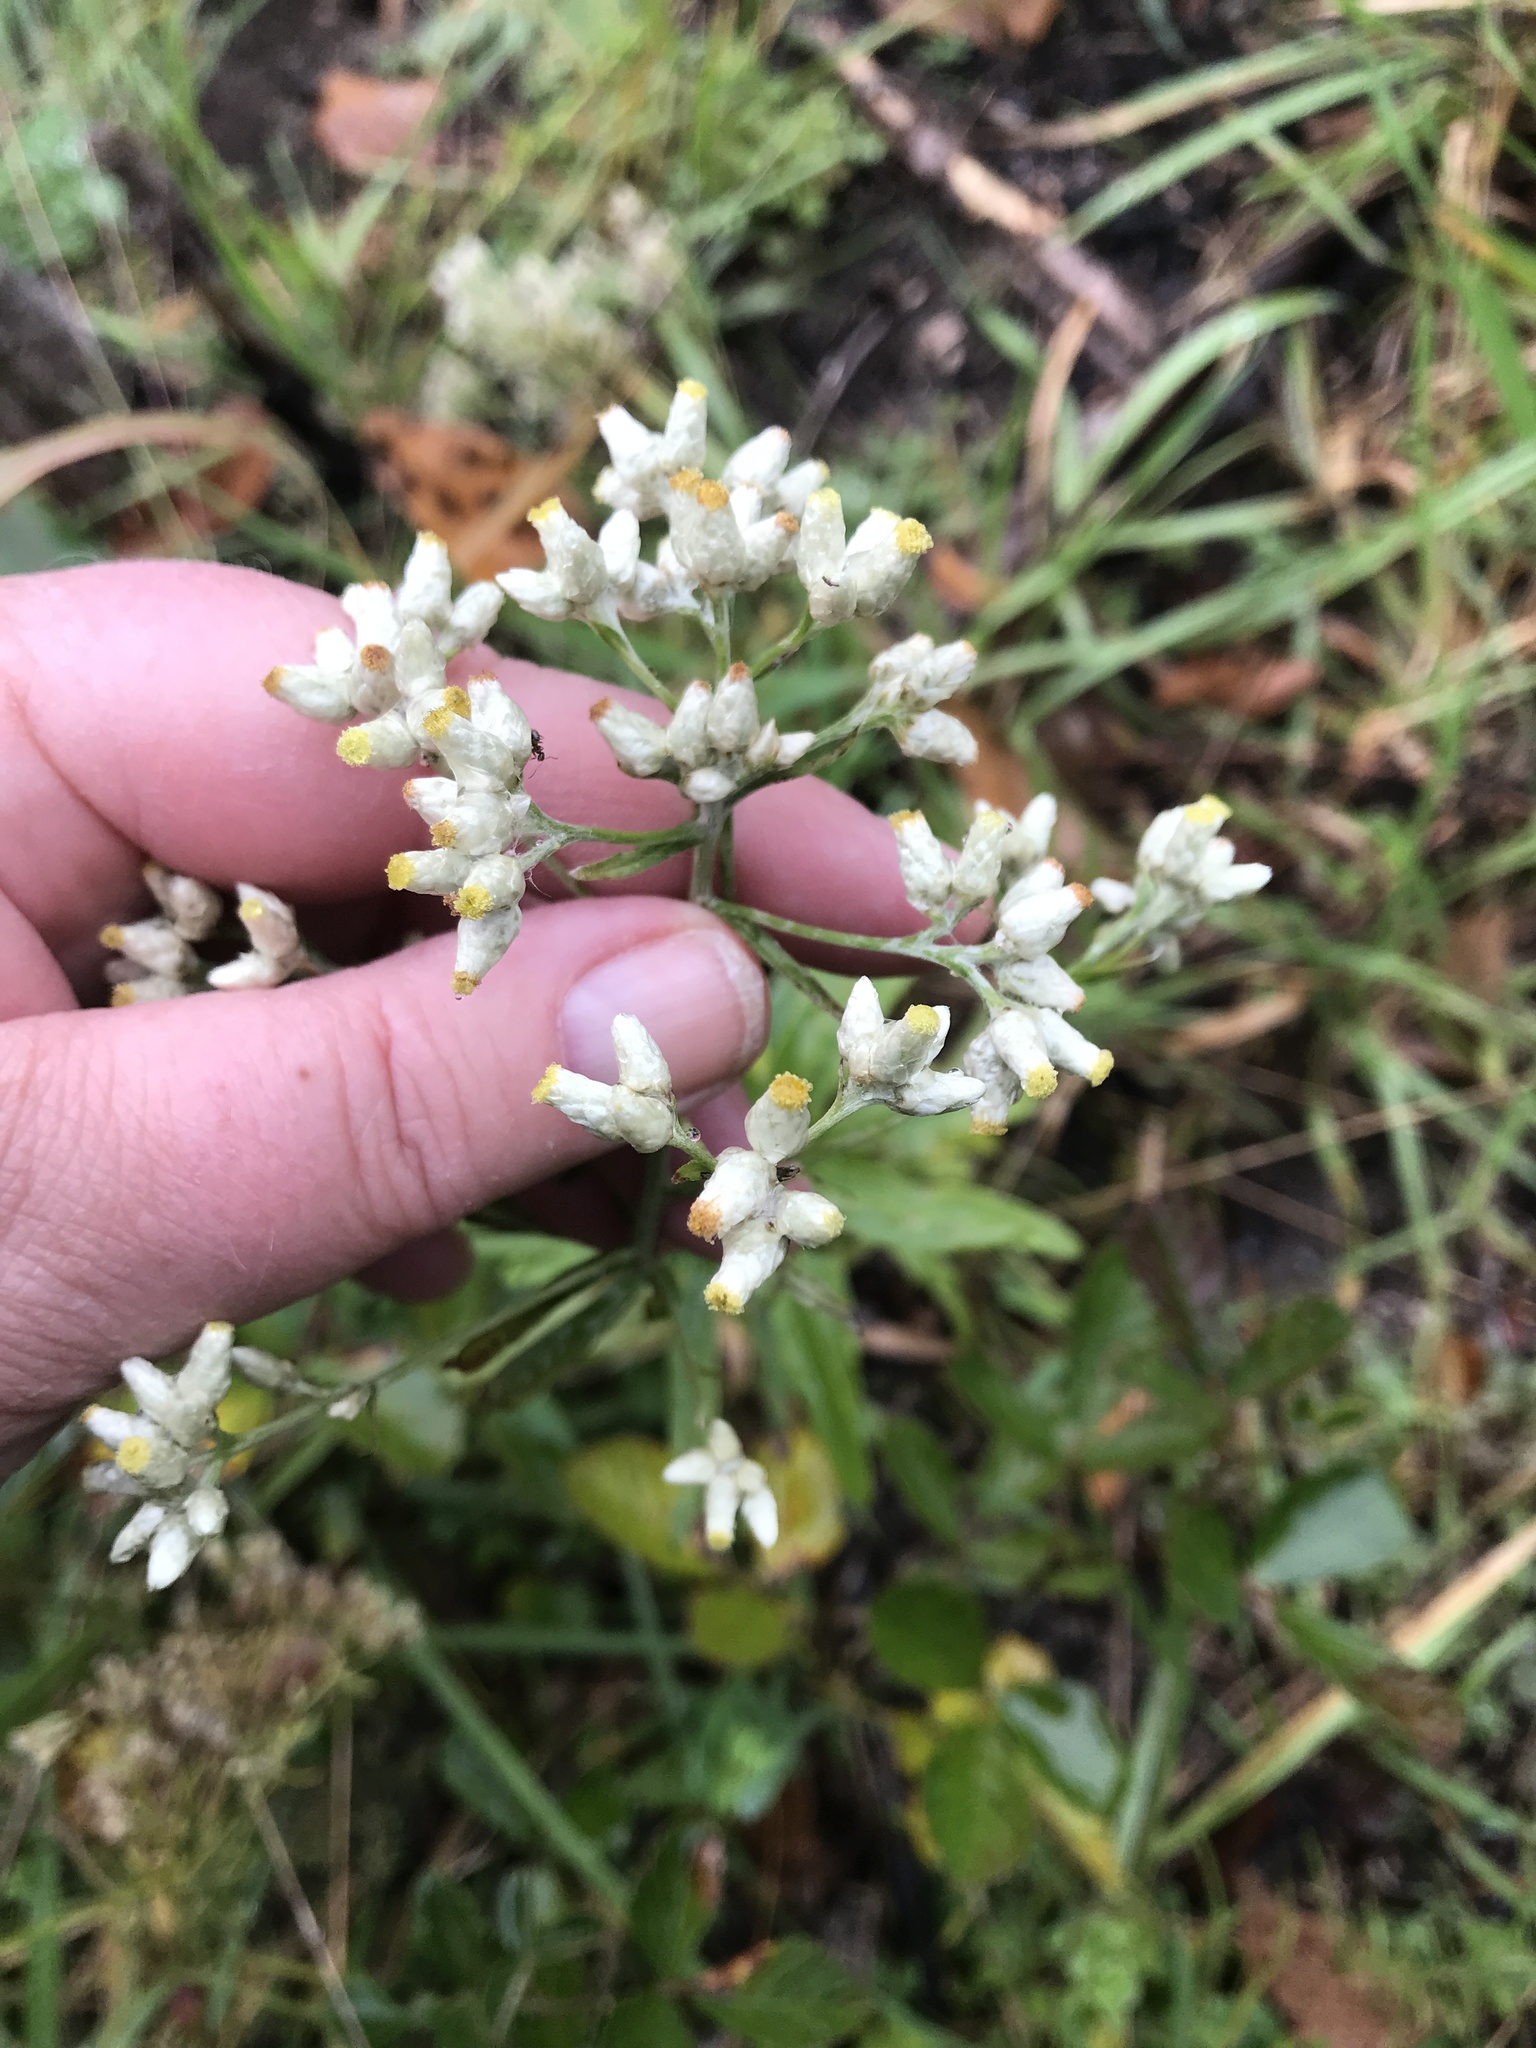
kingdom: Plantae
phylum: Tracheophyta
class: Magnoliopsida
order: Asterales
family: Asteraceae
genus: Pseudognaphalium
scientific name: Pseudognaphalium obtusifolium
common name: Eastern rabbit-tobacco
